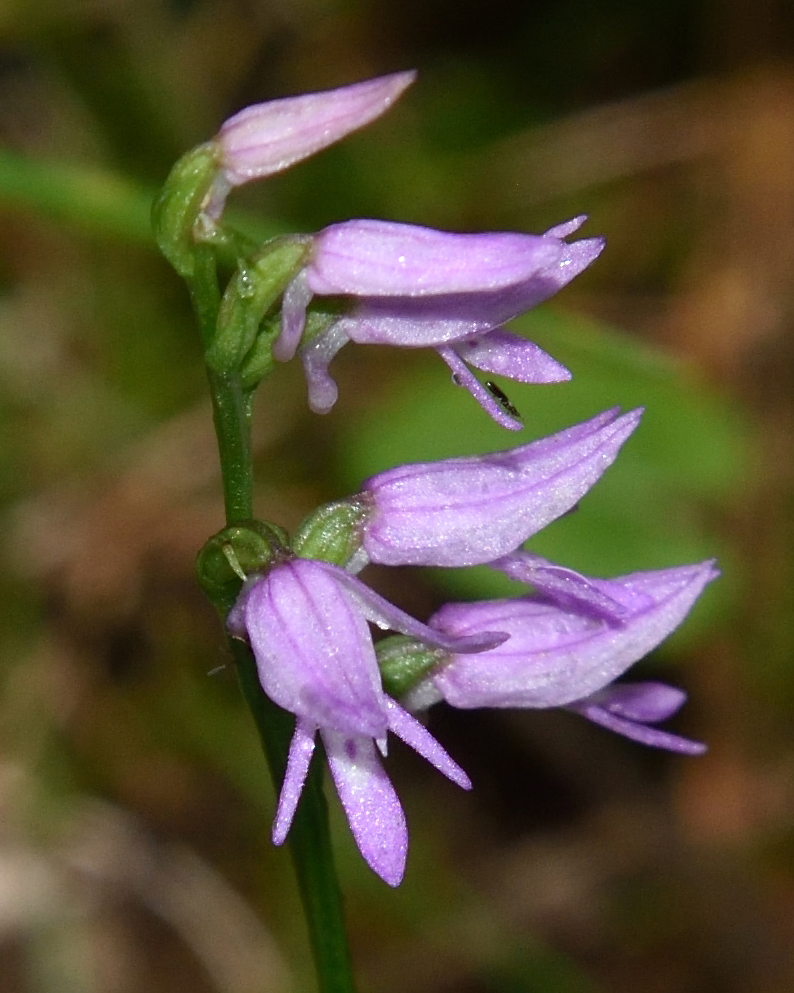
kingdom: Plantae
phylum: Tracheophyta
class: Liliopsida
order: Asparagales
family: Orchidaceae
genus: Hemipilia
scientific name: Hemipilia cucullata
